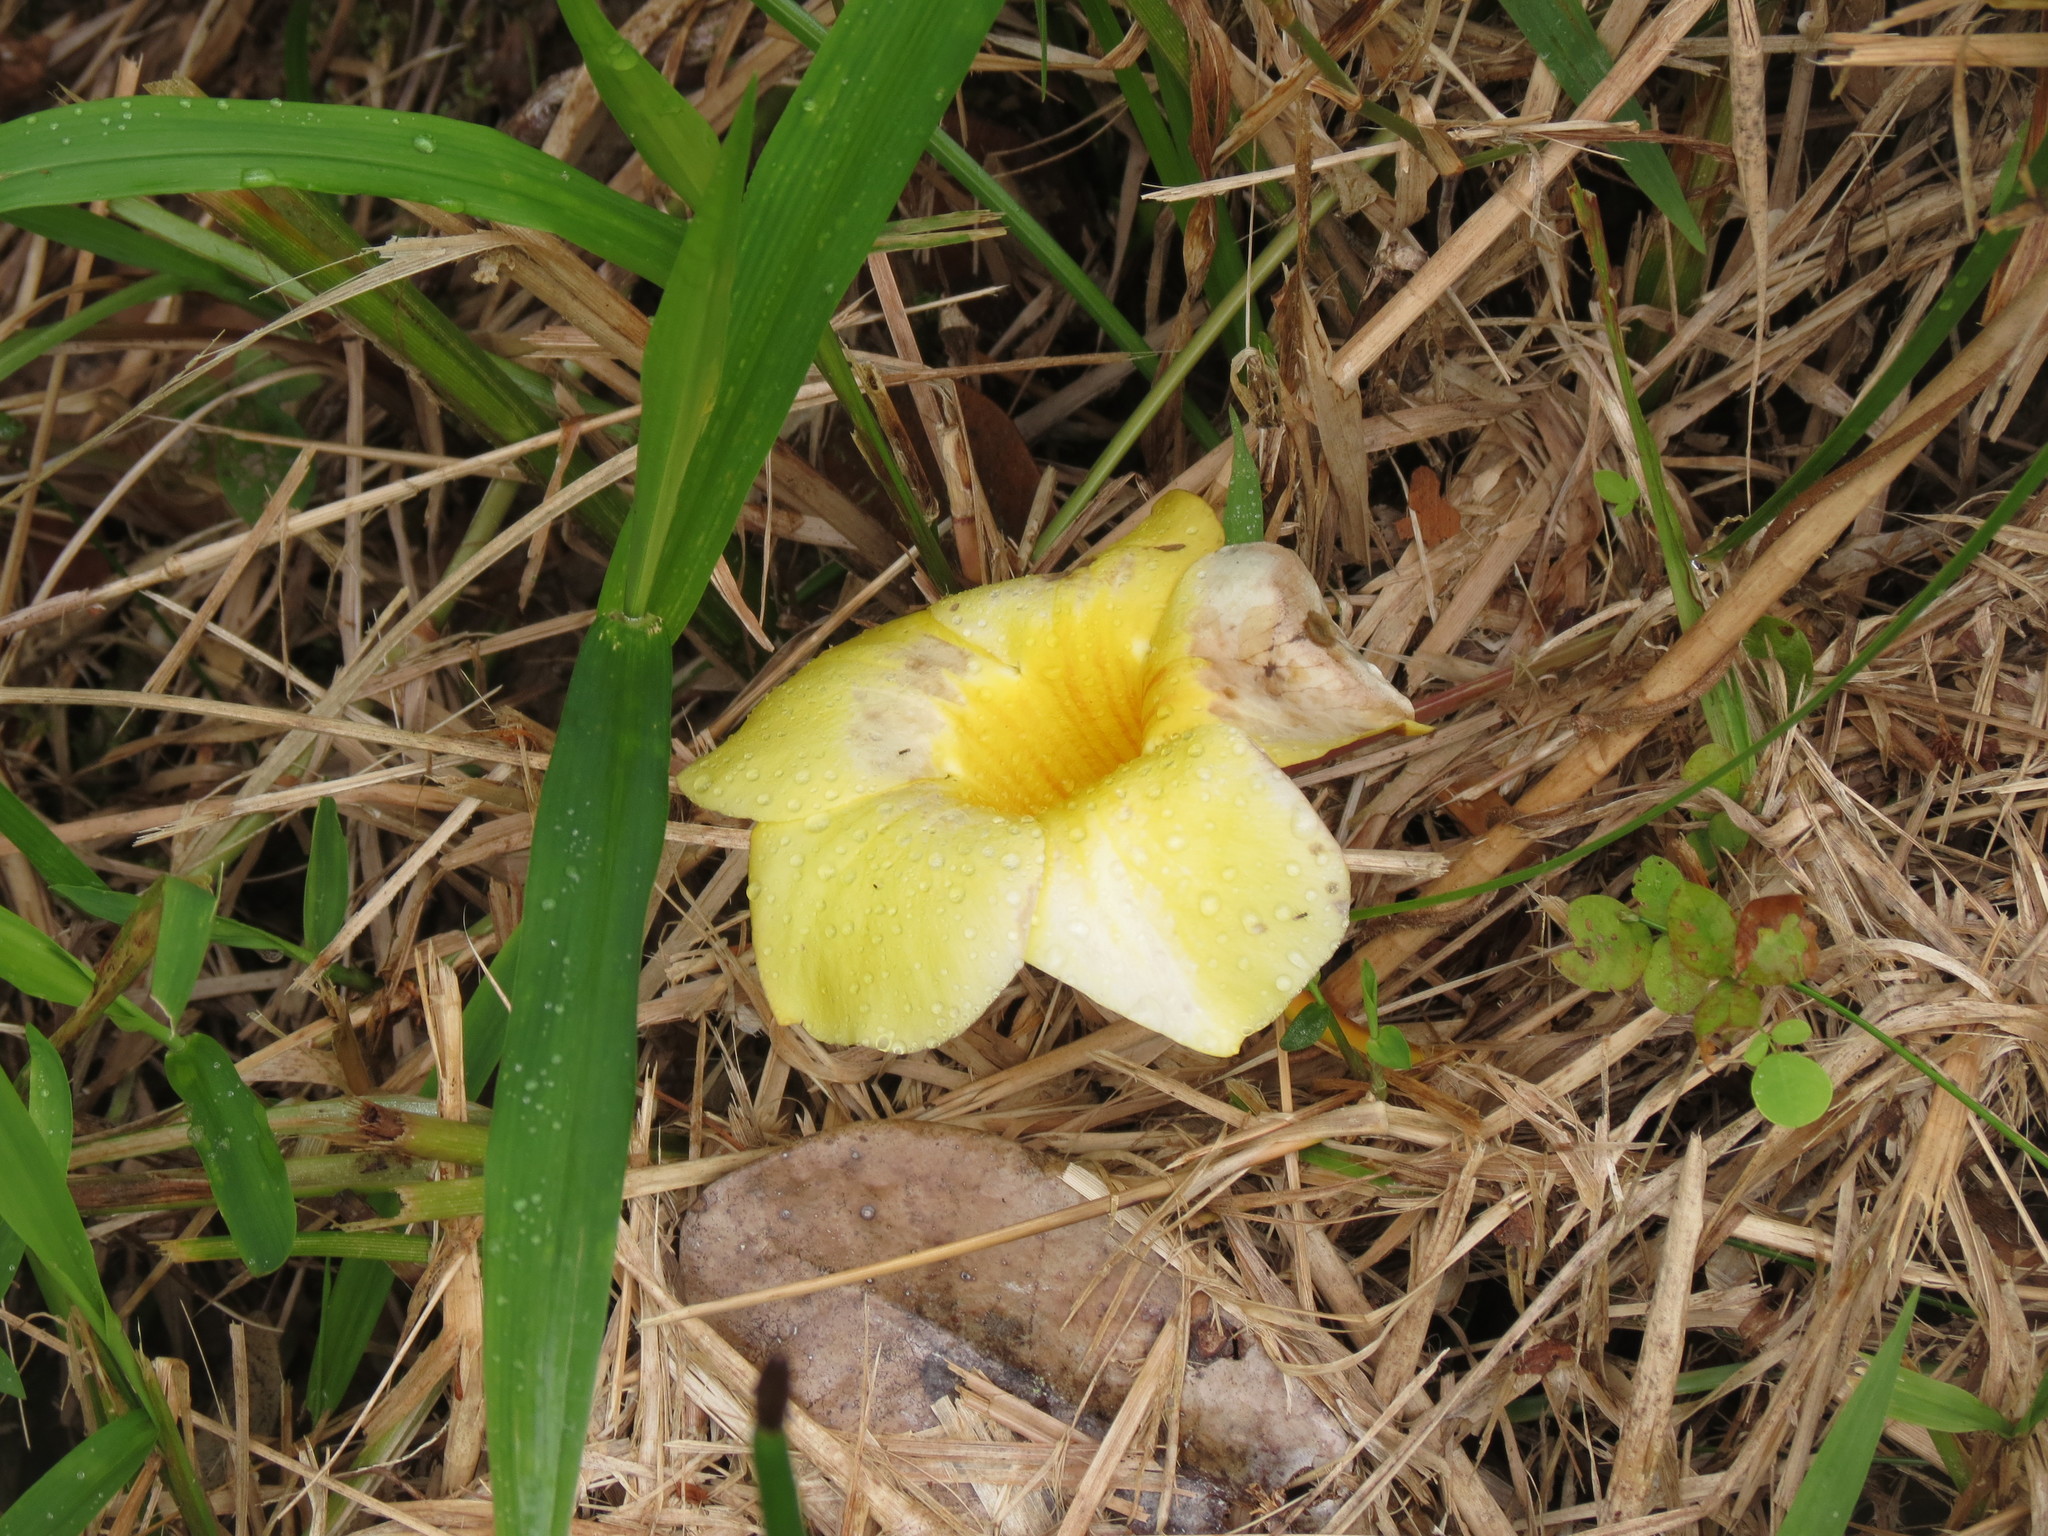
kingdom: Plantae
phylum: Tracheophyta
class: Magnoliopsida
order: Gentianales
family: Apocynaceae
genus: Allamanda
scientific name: Allamanda cathartica
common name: Golden trumpet
